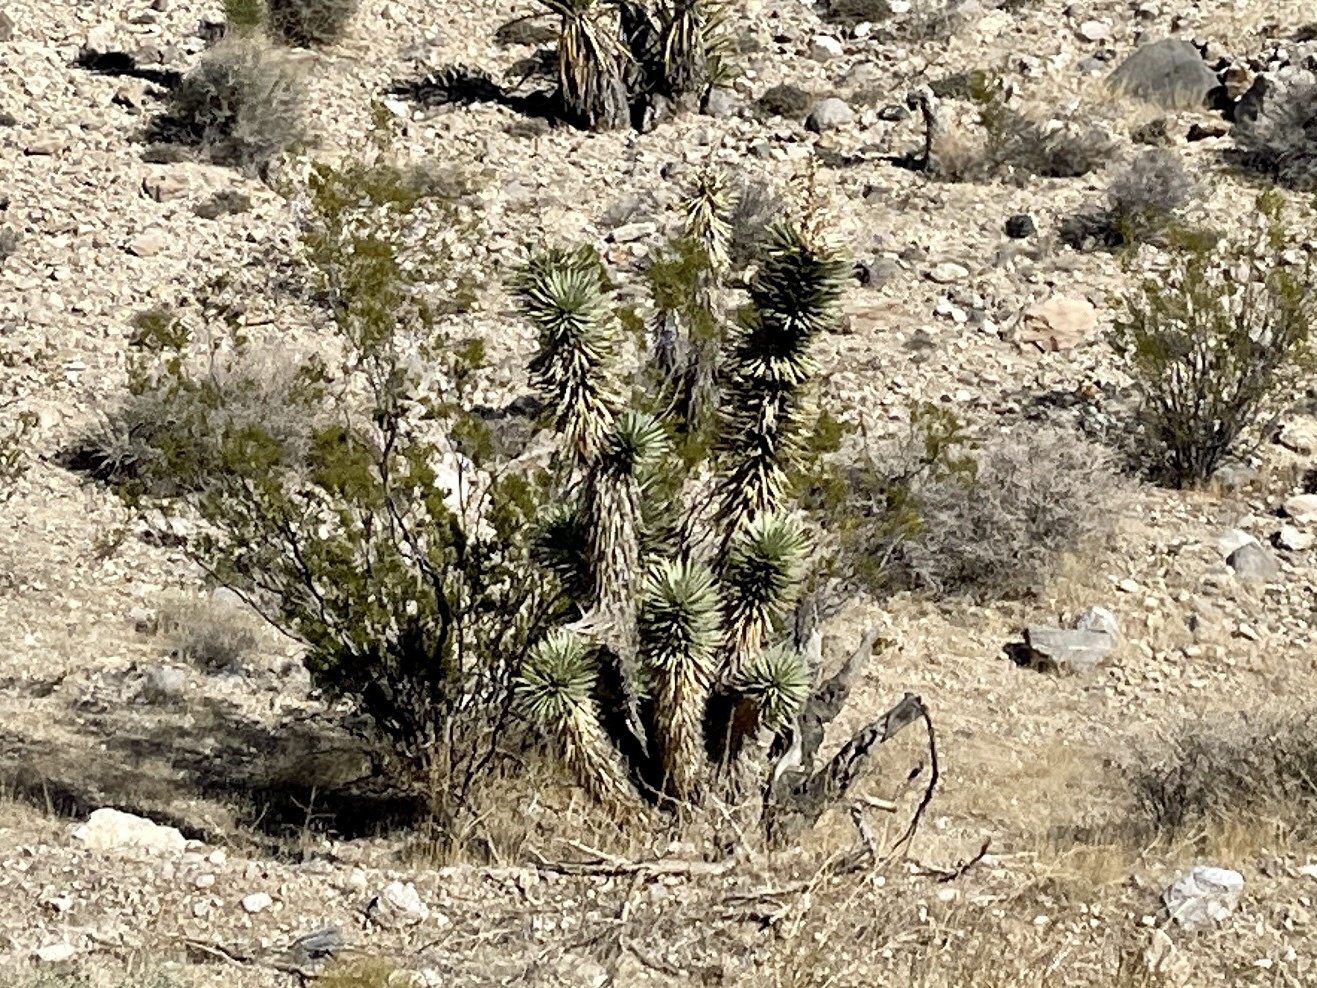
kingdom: Plantae
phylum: Tracheophyta
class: Liliopsida
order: Asparagales
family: Asparagaceae
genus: Yucca
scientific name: Yucca brevifolia
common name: Joshua tree
